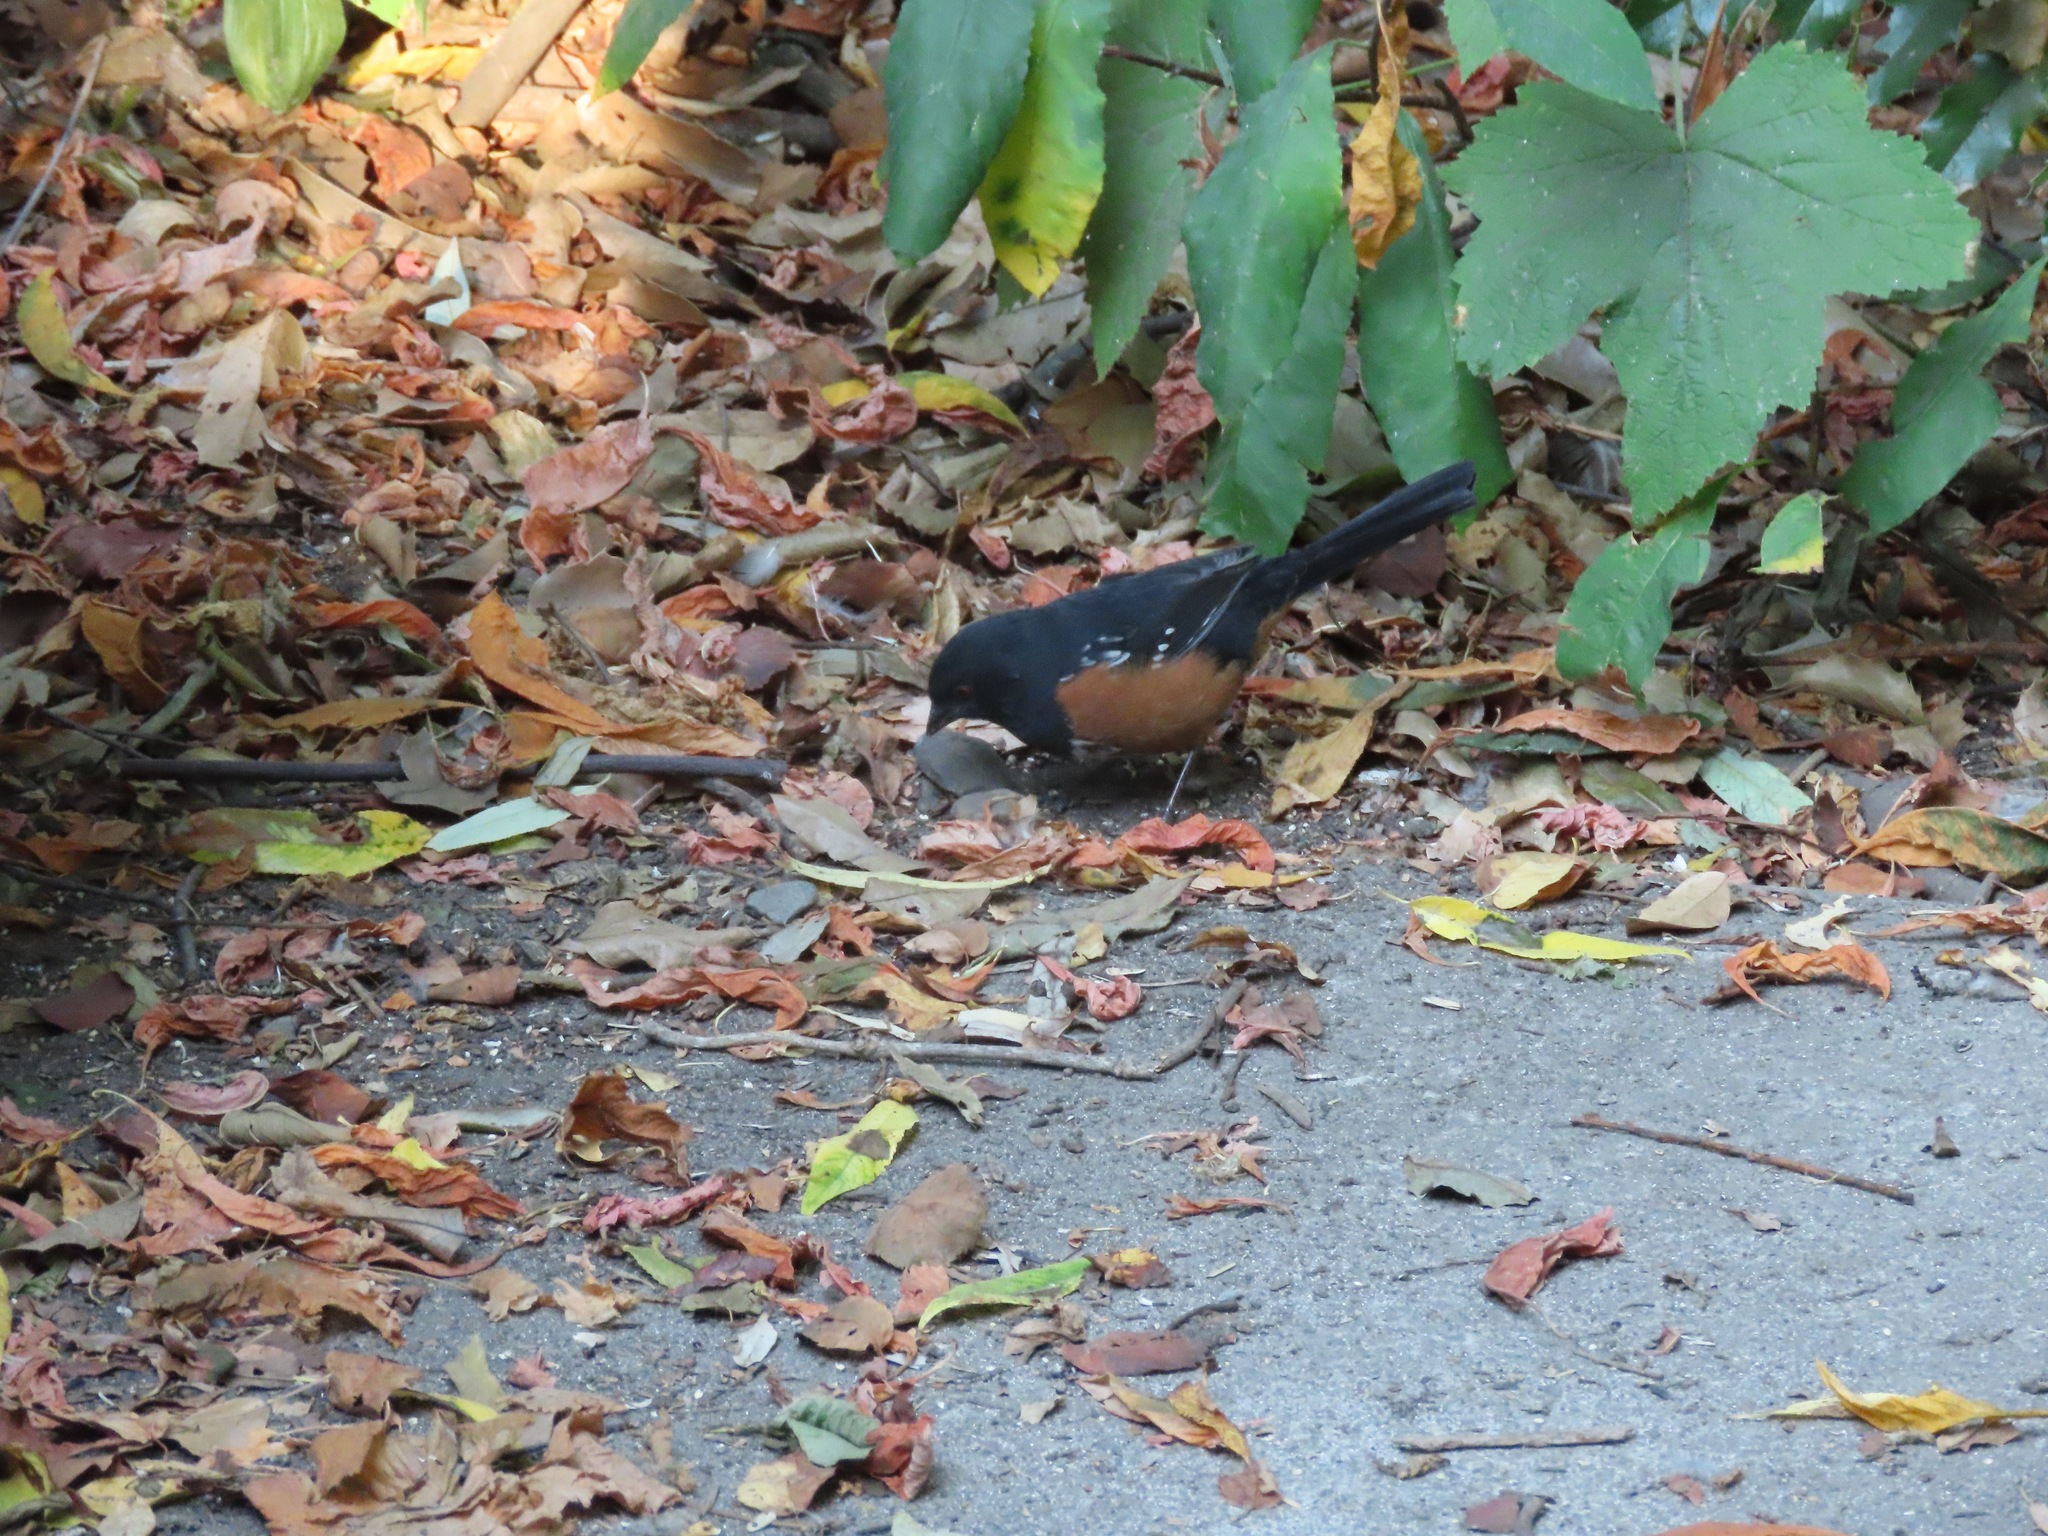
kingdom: Animalia
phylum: Chordata
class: Aves
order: Passeriformes
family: Passerellidae
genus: Pipilo
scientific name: Pipilo maculatus
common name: Spotted towhee
